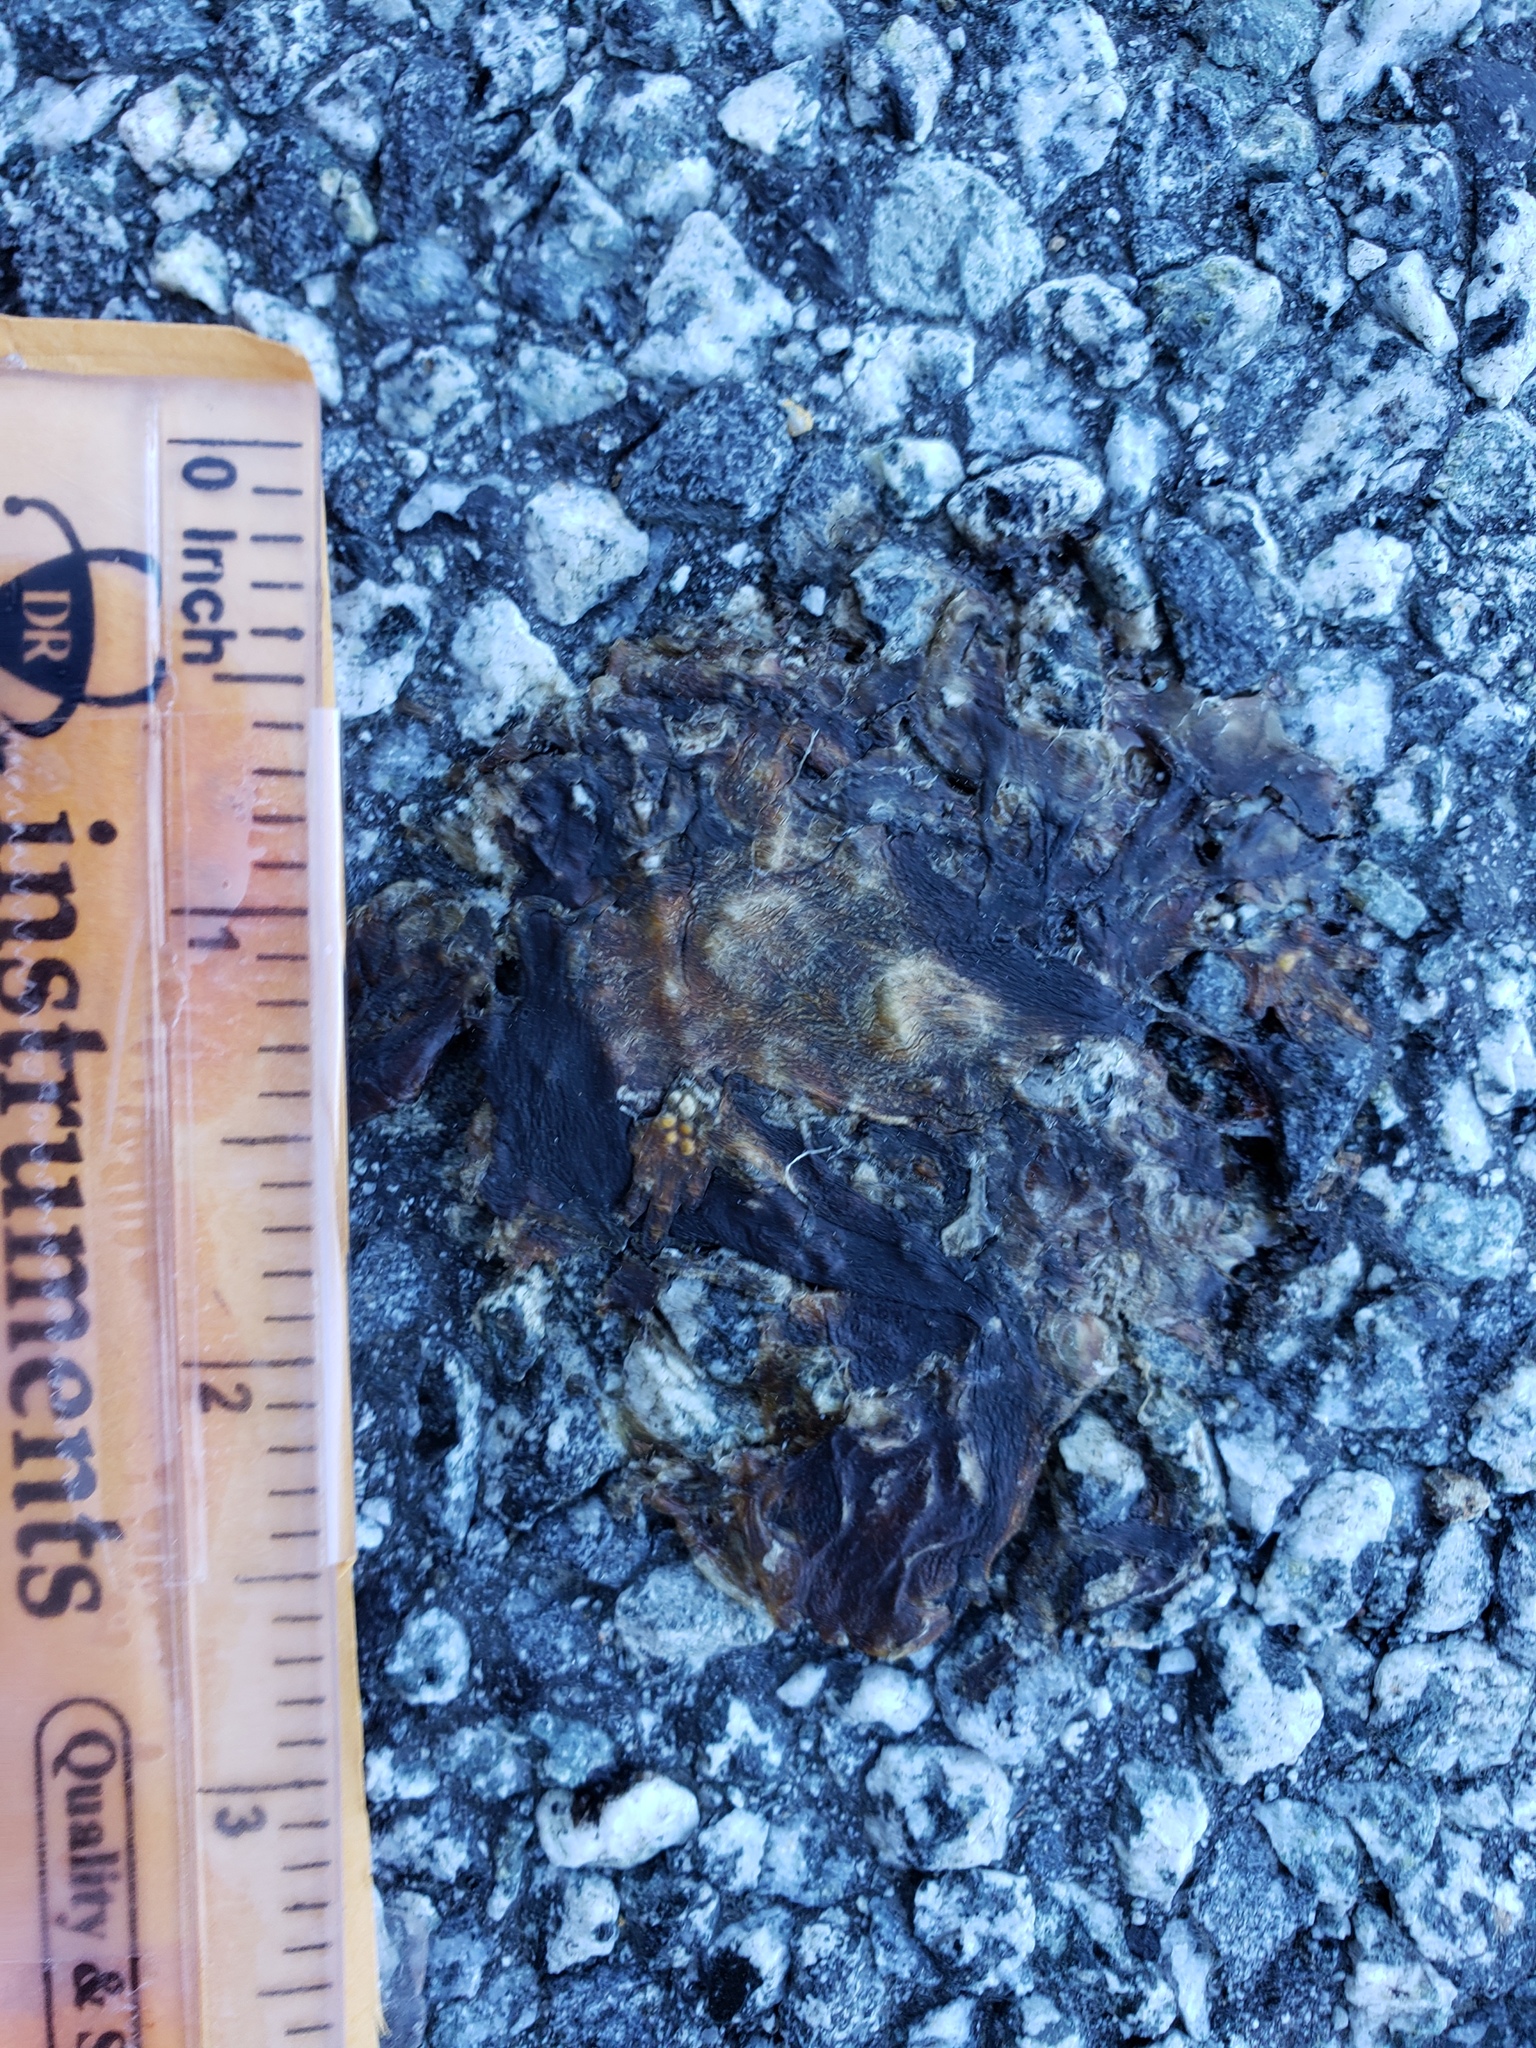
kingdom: Animalia
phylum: Chordata
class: Amphibia
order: Caudata
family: Salamandridae
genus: Taricha
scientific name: Taricha
